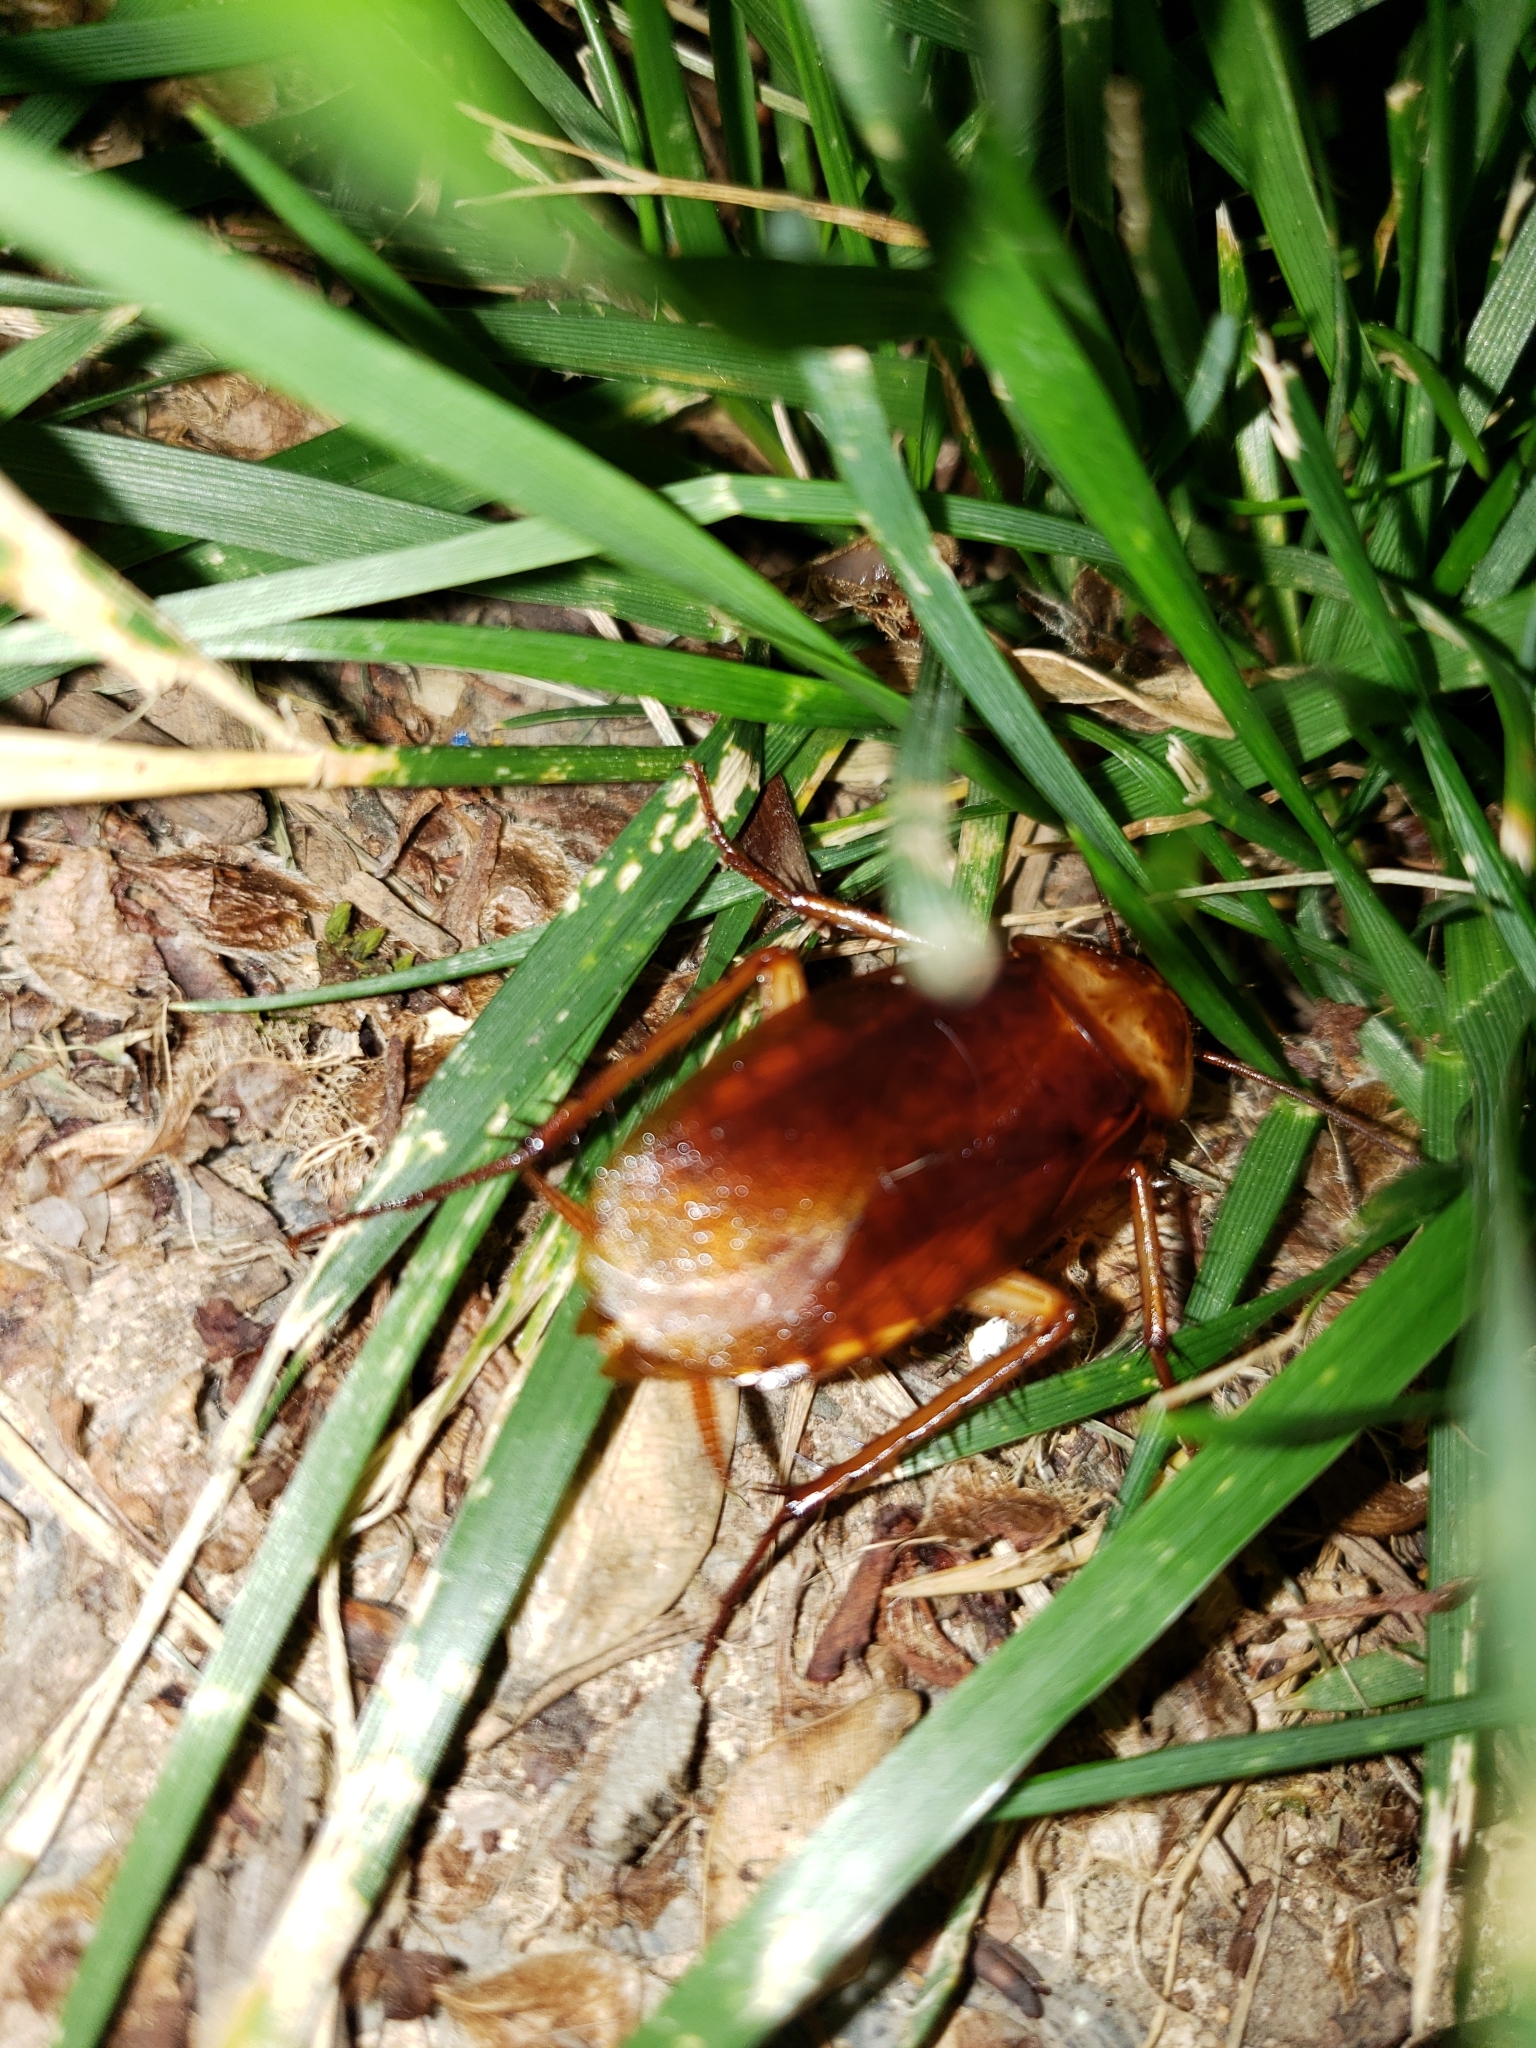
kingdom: Animalia
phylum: Arthropoda
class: Insecta
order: Blattodea
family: Blattidae
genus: Periplaneta
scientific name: Periplaneta americana
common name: American cockroach
